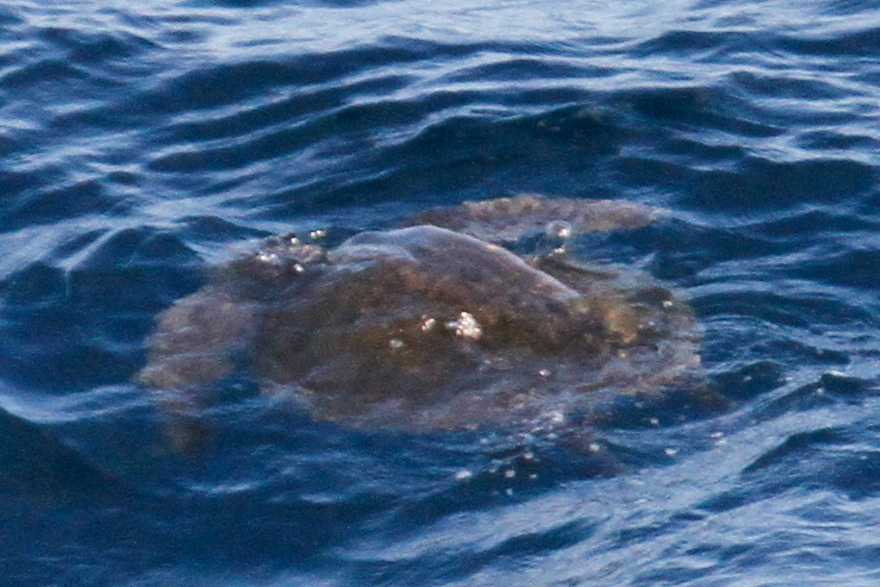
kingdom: Animalia
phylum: Chordata
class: Testudines
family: Cheloniidae
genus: Lepidochelys
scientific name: Lepidochelys olivacea
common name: Olive ridley
